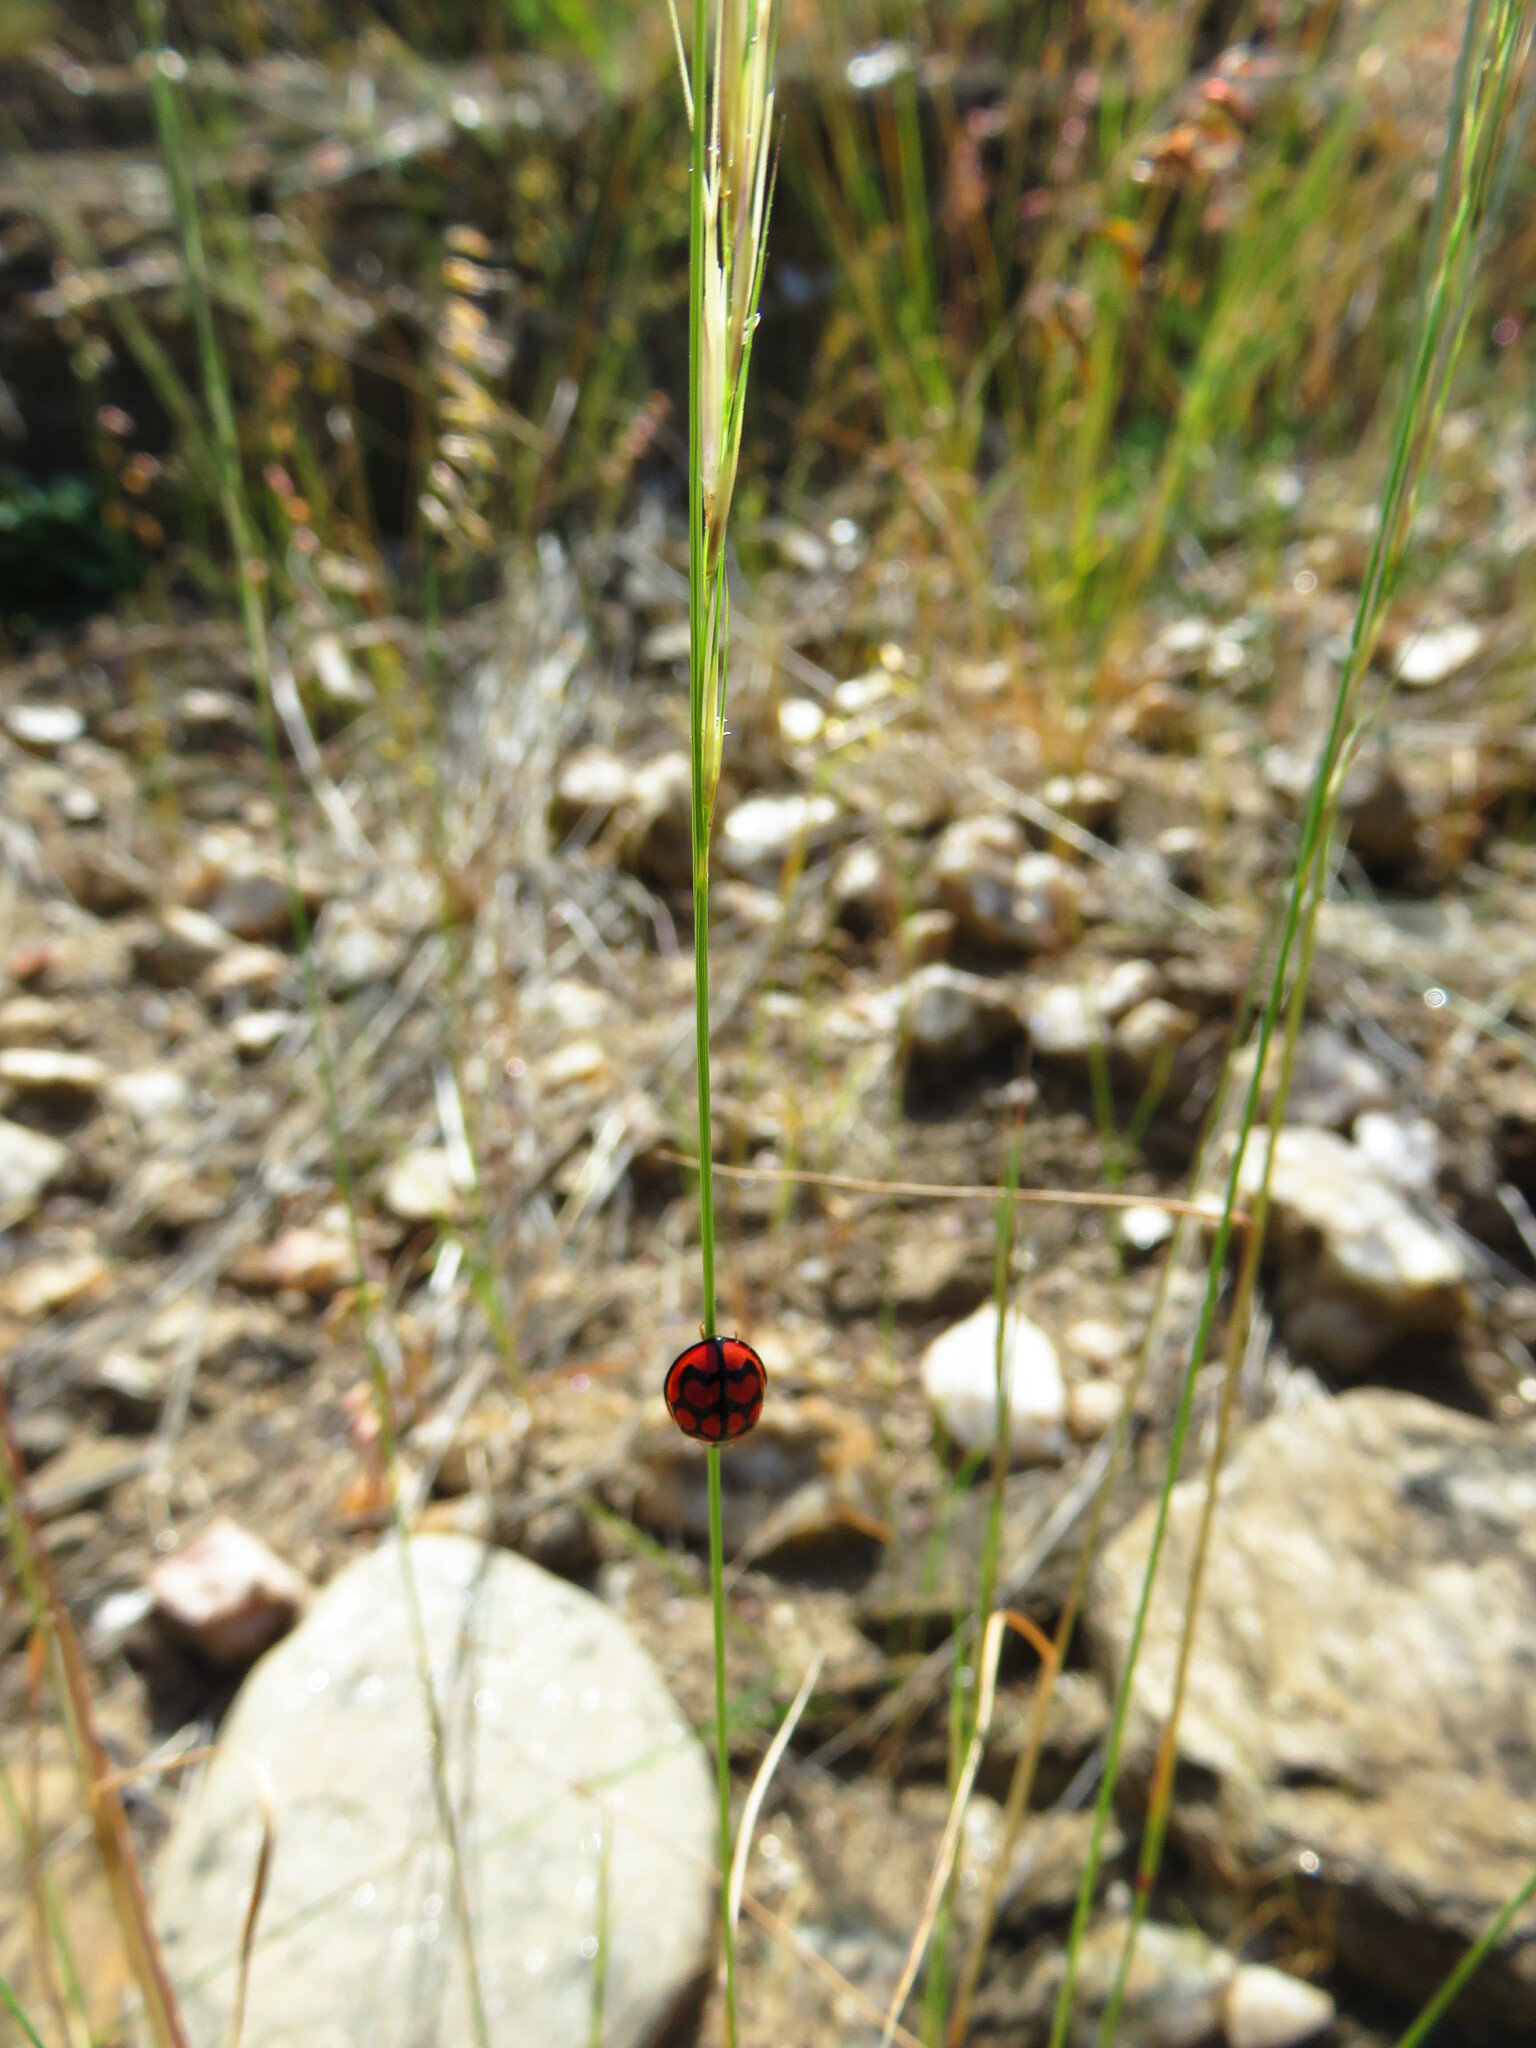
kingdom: Animalia
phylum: Arthropoda
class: Insecta
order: Coleoptera
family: Coccinellidae
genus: Cheilomenes
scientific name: Cheilomenes lunata
